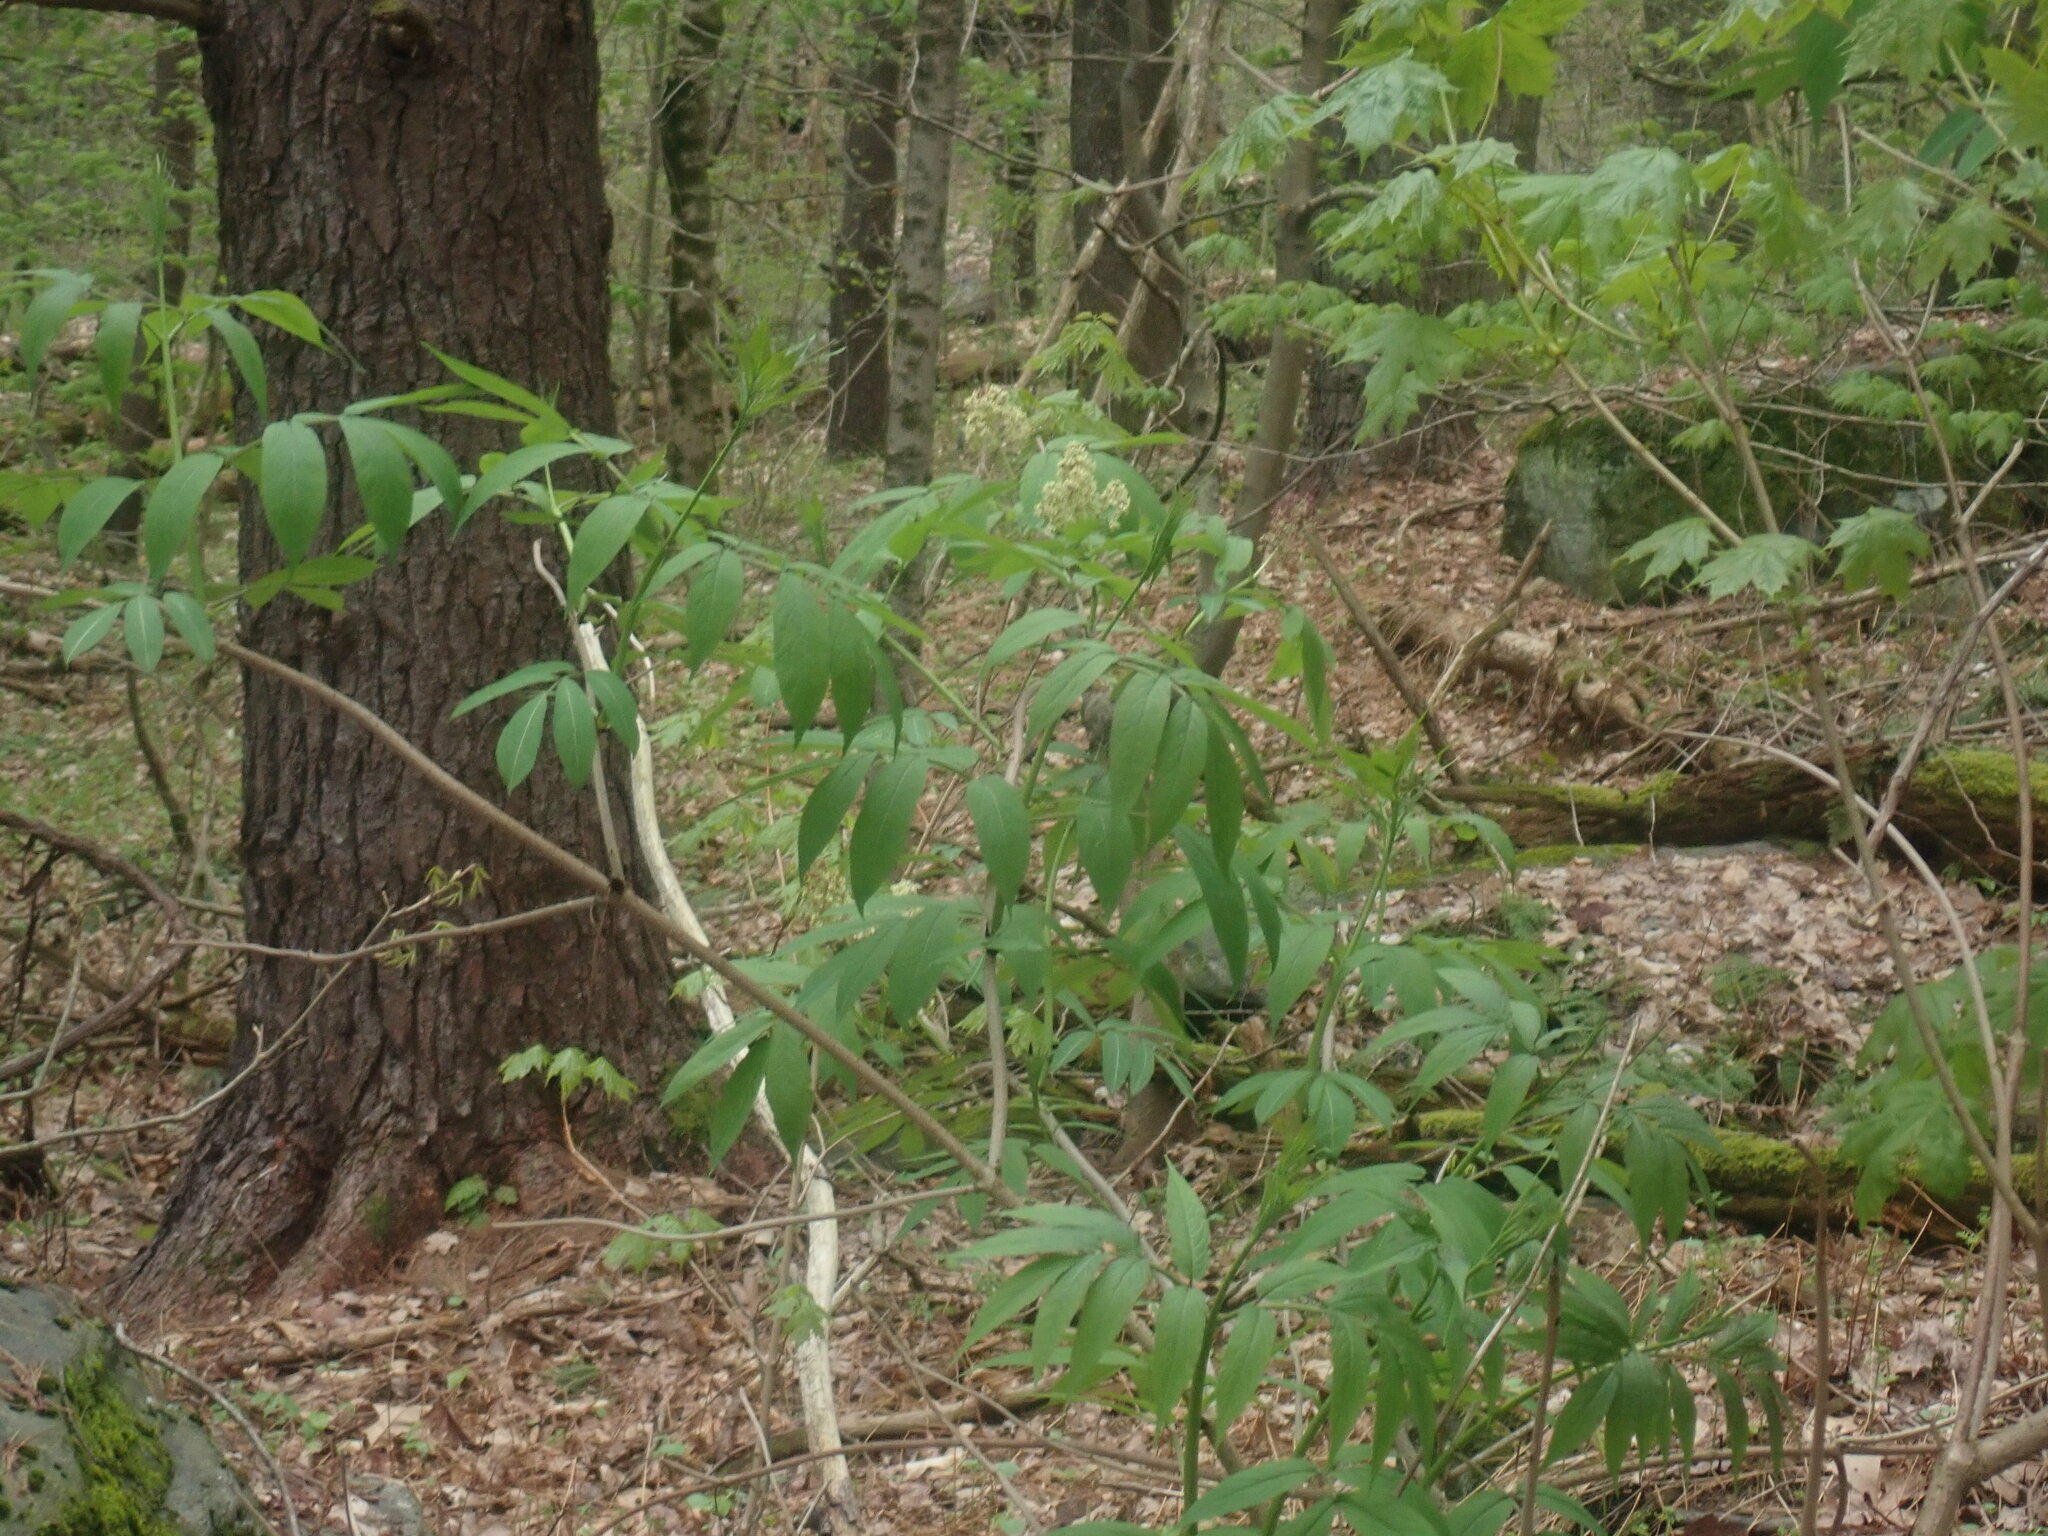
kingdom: Plantae
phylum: Tracheophyta
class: Magnoliopsida
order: Dipsacales
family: Viburnaceae
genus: Sambucus
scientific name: Sambucus racemosa
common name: Red-berried elder
